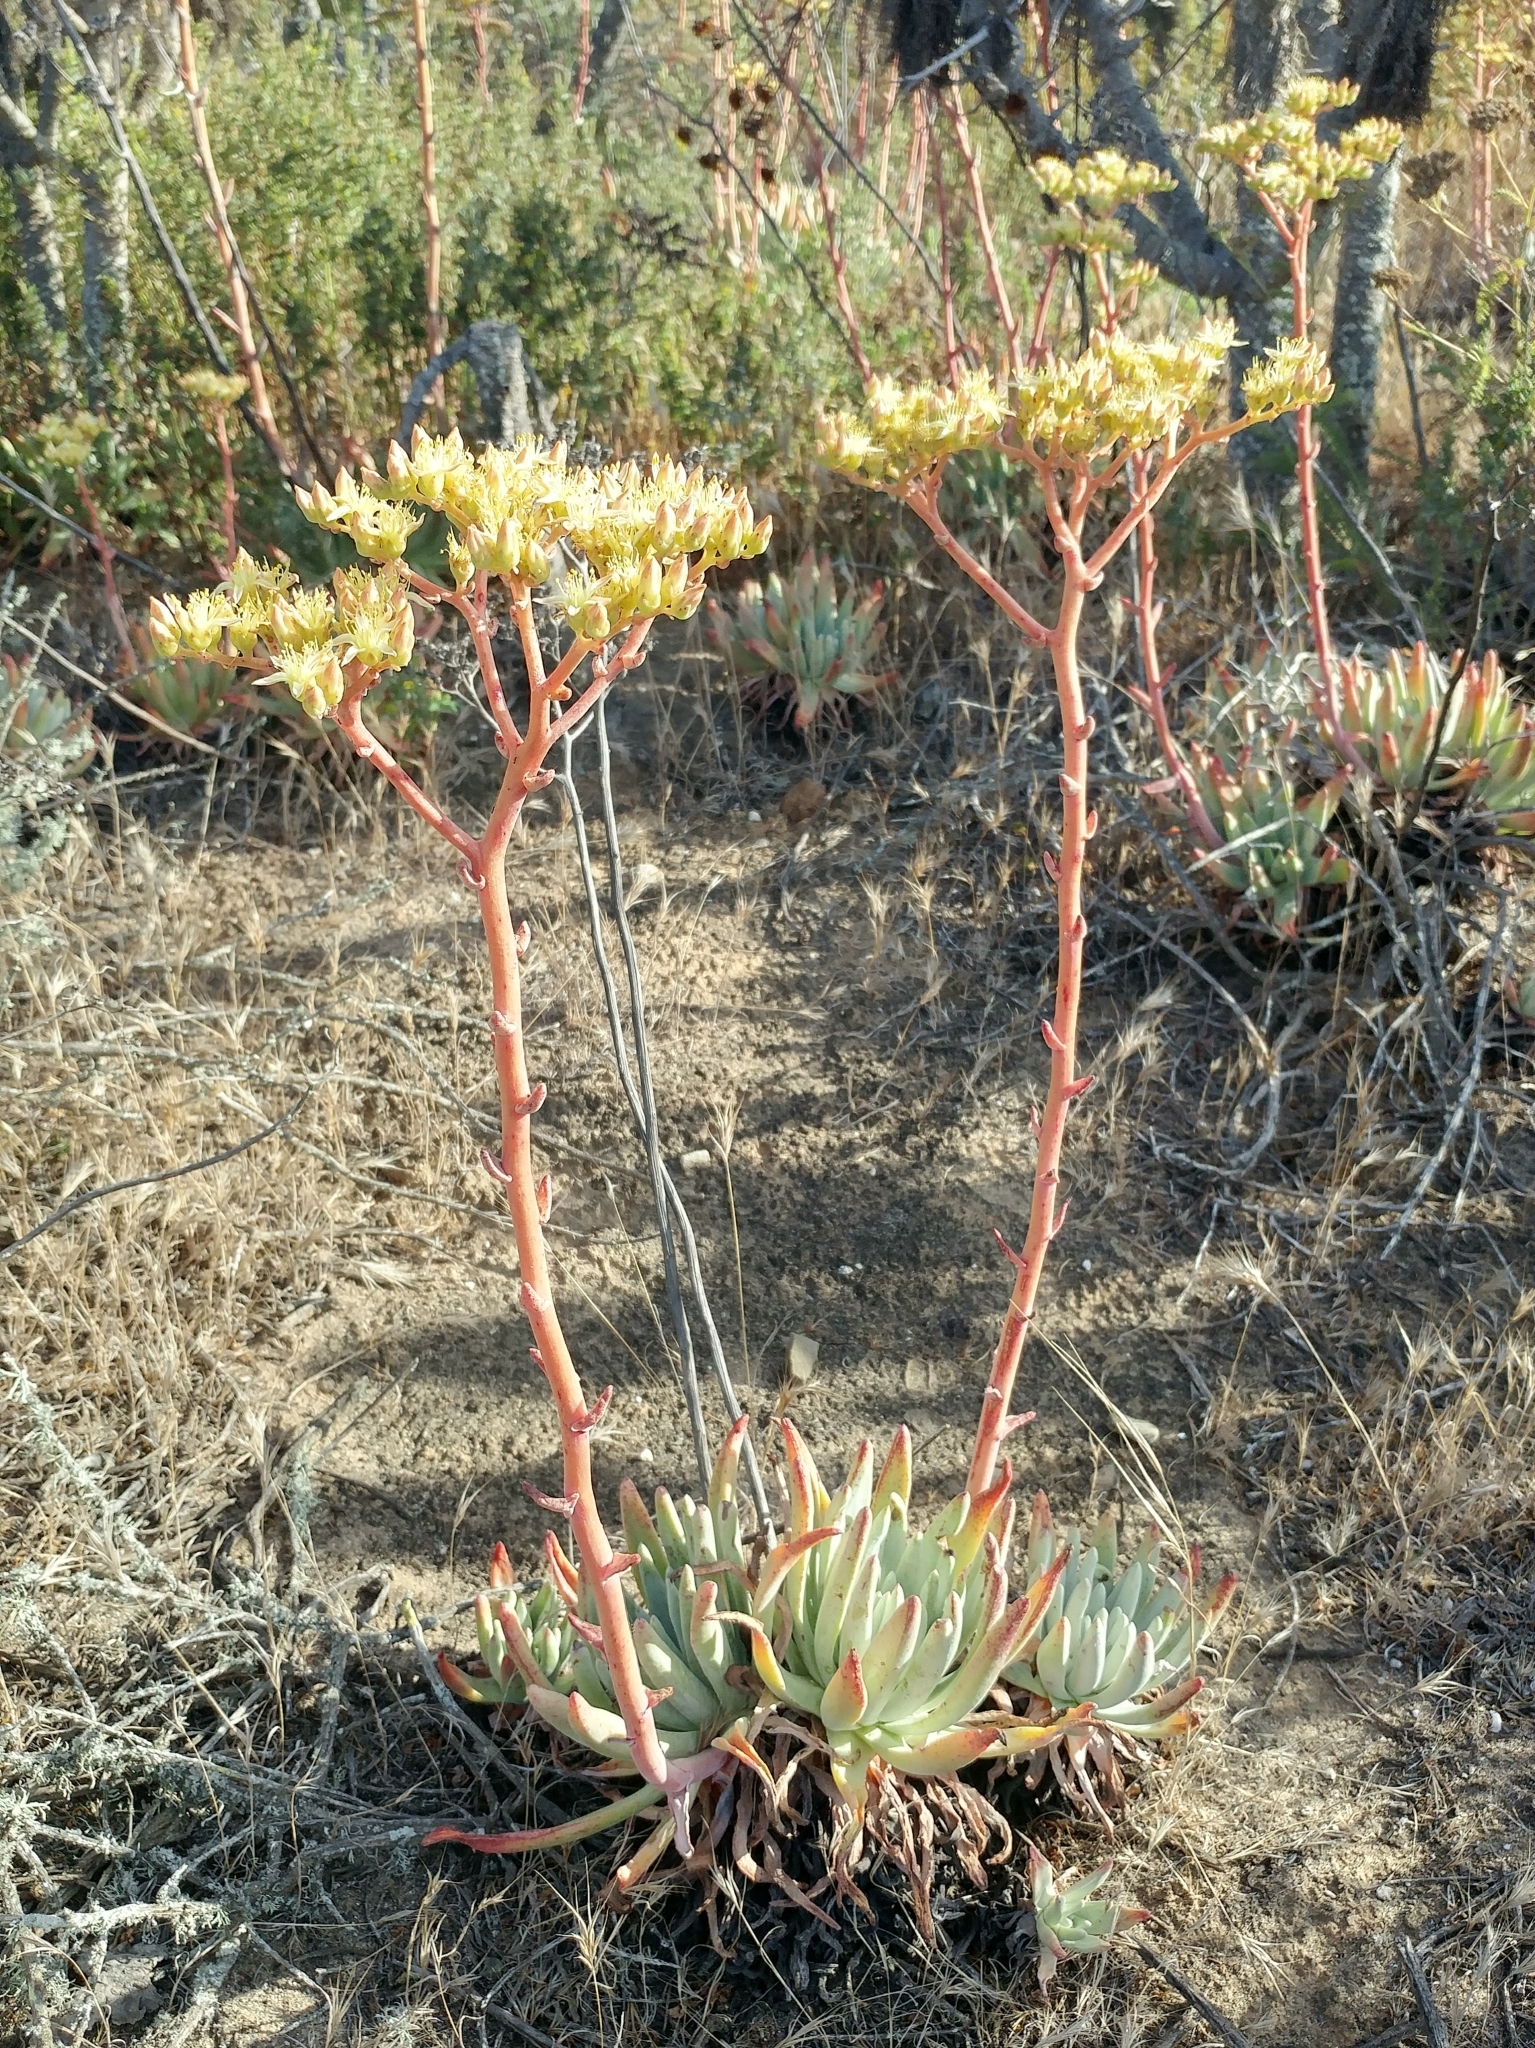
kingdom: Plantae
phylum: Tracheophyta
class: Magnoliopsida
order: Saxifragales
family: Crassulaceae
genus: Dudleya
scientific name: Dudleya virens
